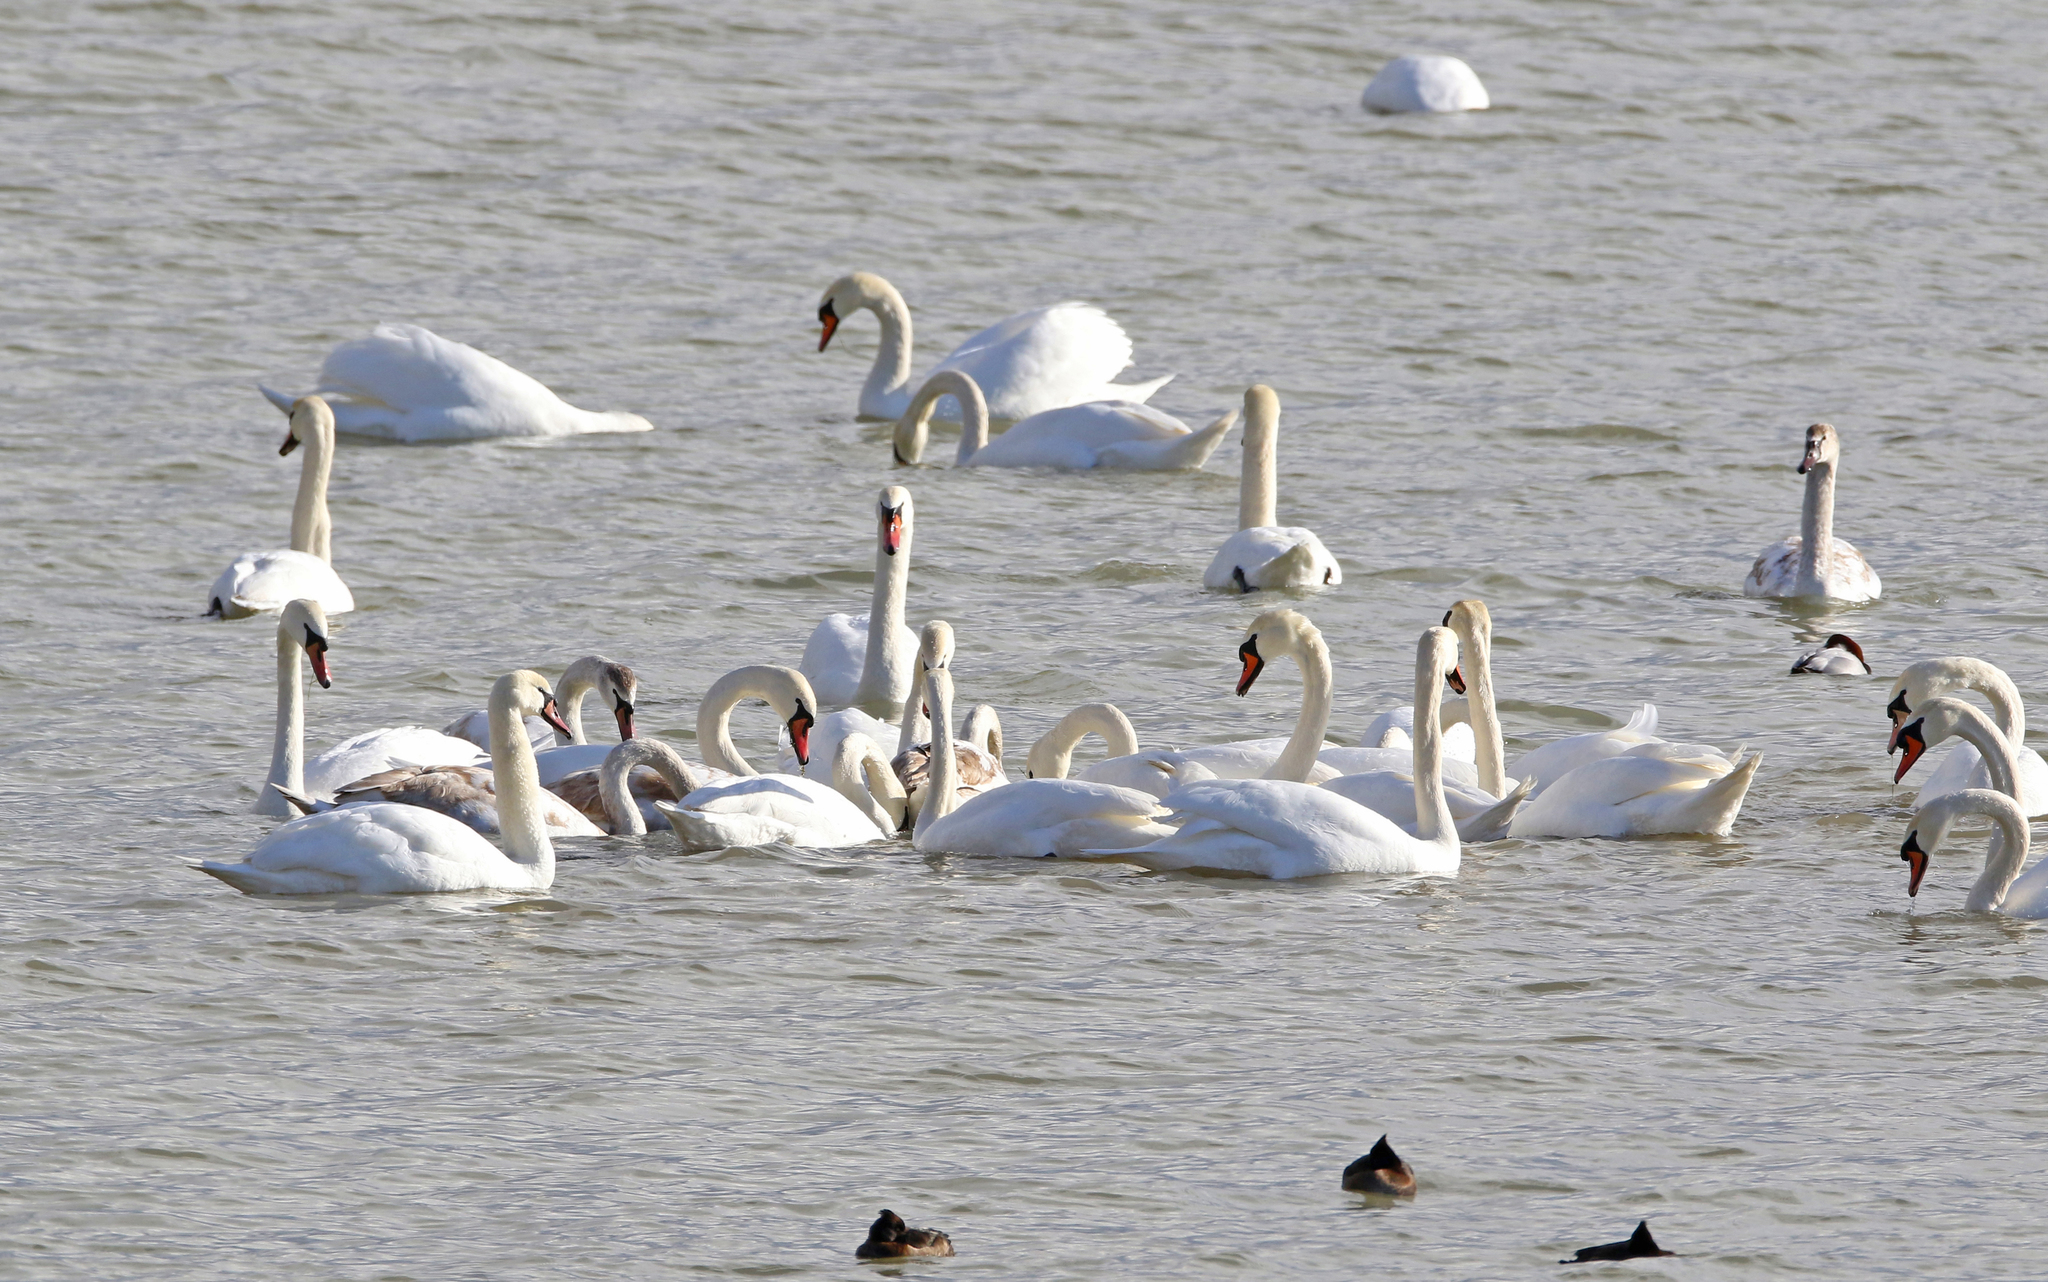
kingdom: Animalia
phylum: Chordata
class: Aves
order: Anseriformes
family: Anatidae
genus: Cygnus
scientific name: Cygnus olor
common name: Mute swan
